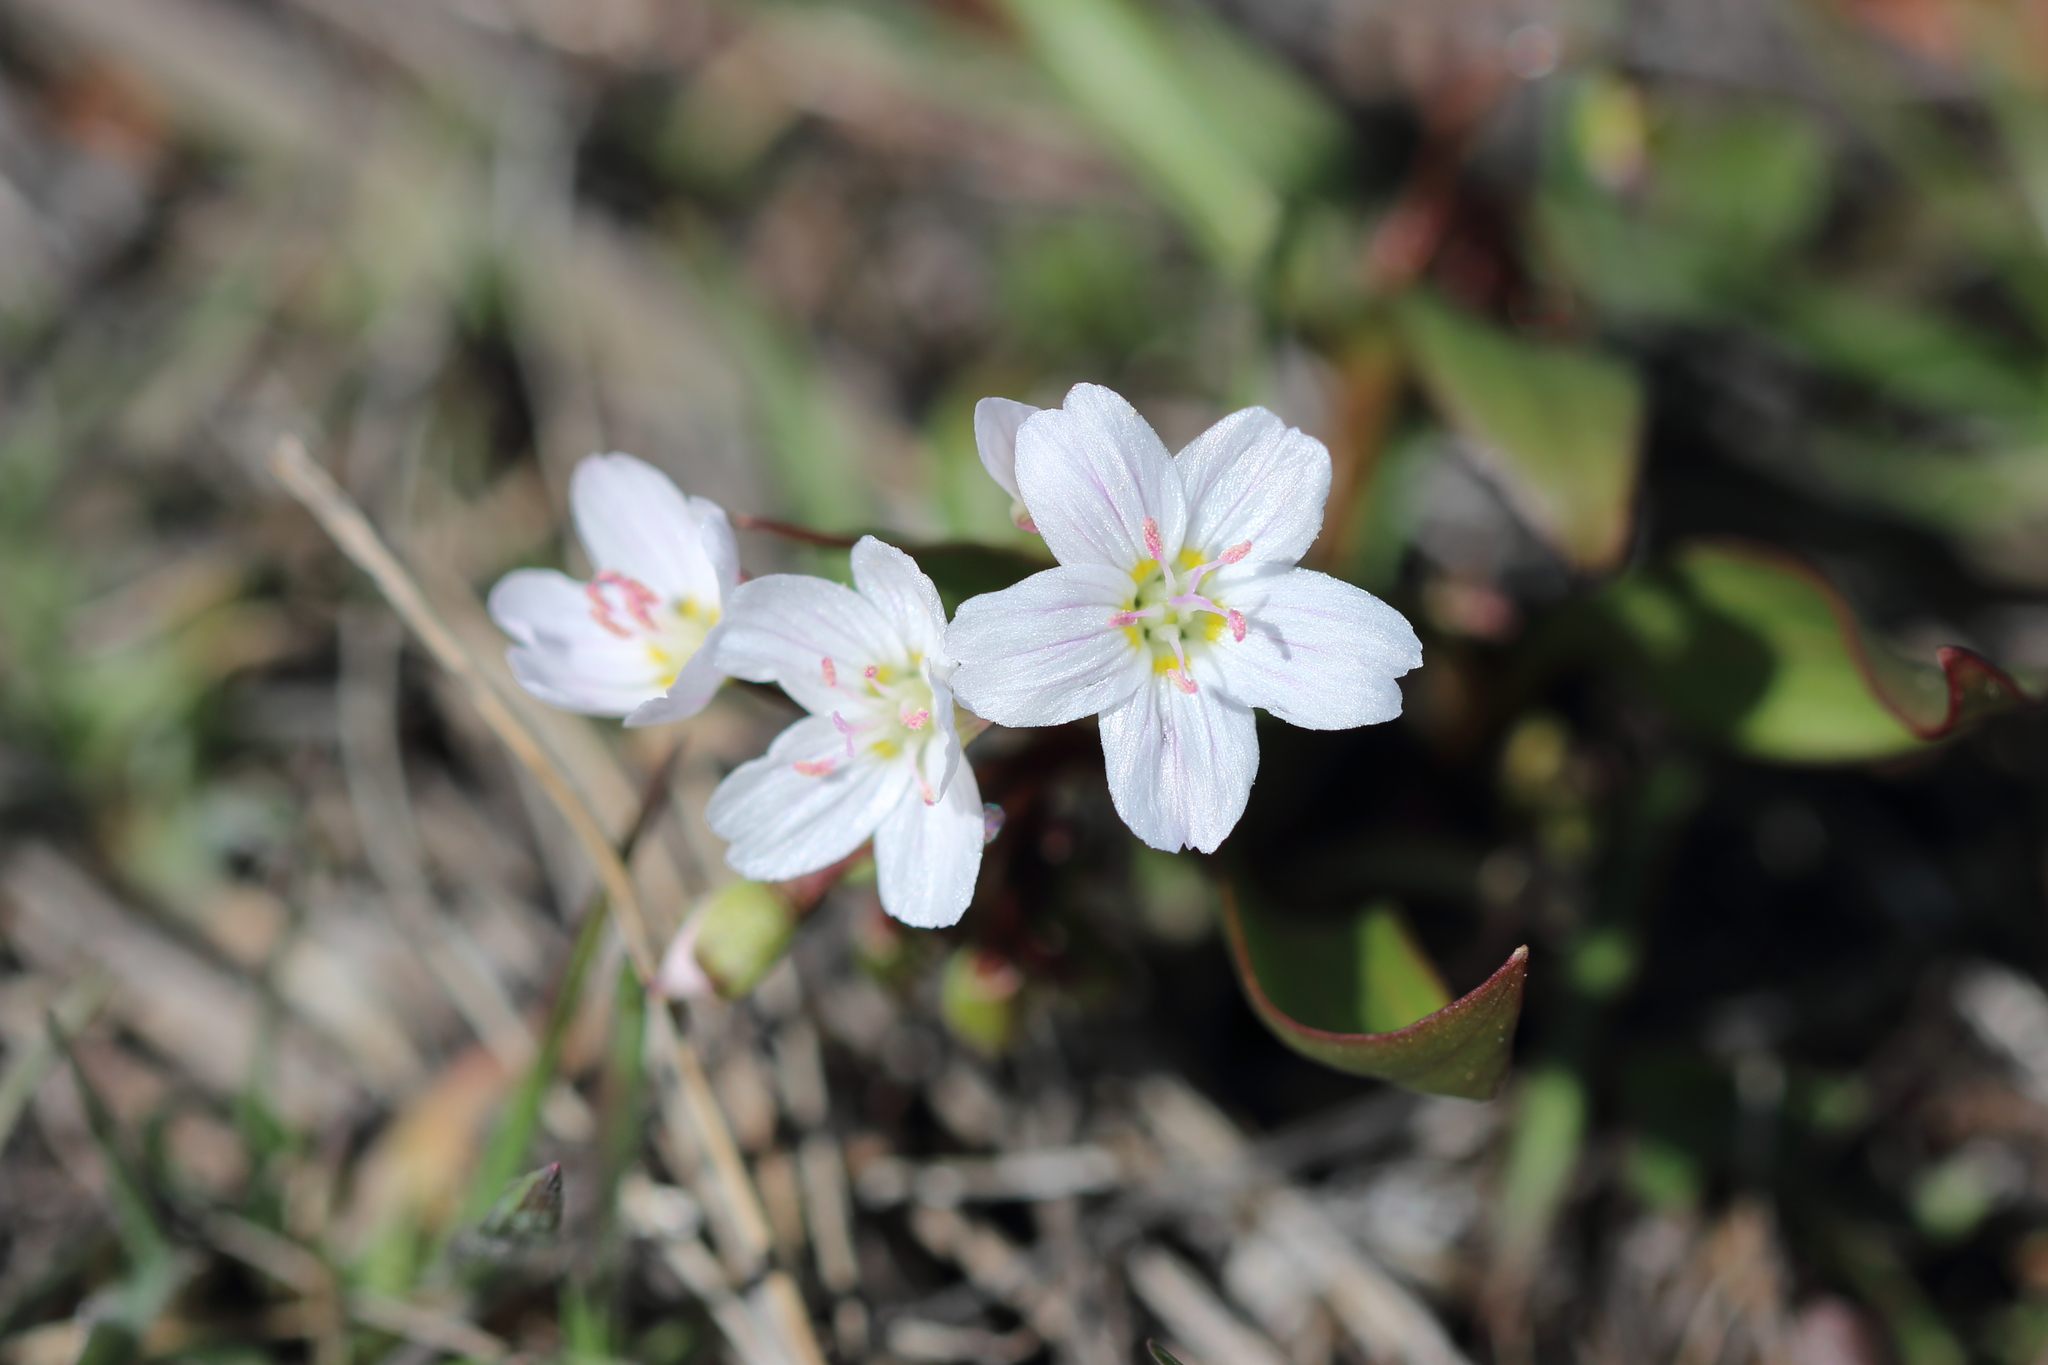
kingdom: Plantae
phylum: Tracheophyta
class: Magnoliopsida
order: Caryophyllales
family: Montiaceae
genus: Claytonia
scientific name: Claytonia lanceolata
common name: Western spring-beauty
